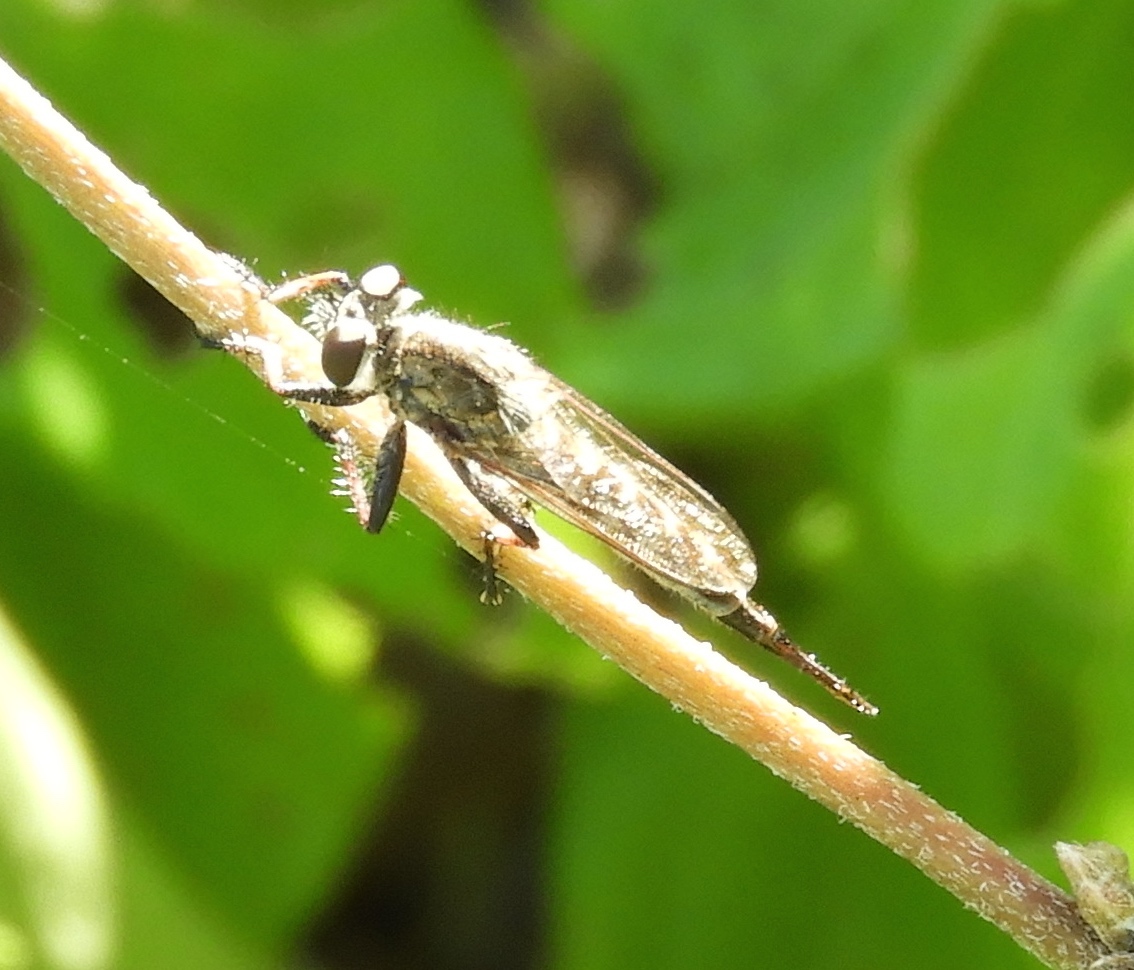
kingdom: Animalia
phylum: Arthropoda
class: Insecta
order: Diptera
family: Asilidae
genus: Efferia
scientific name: Efferia
